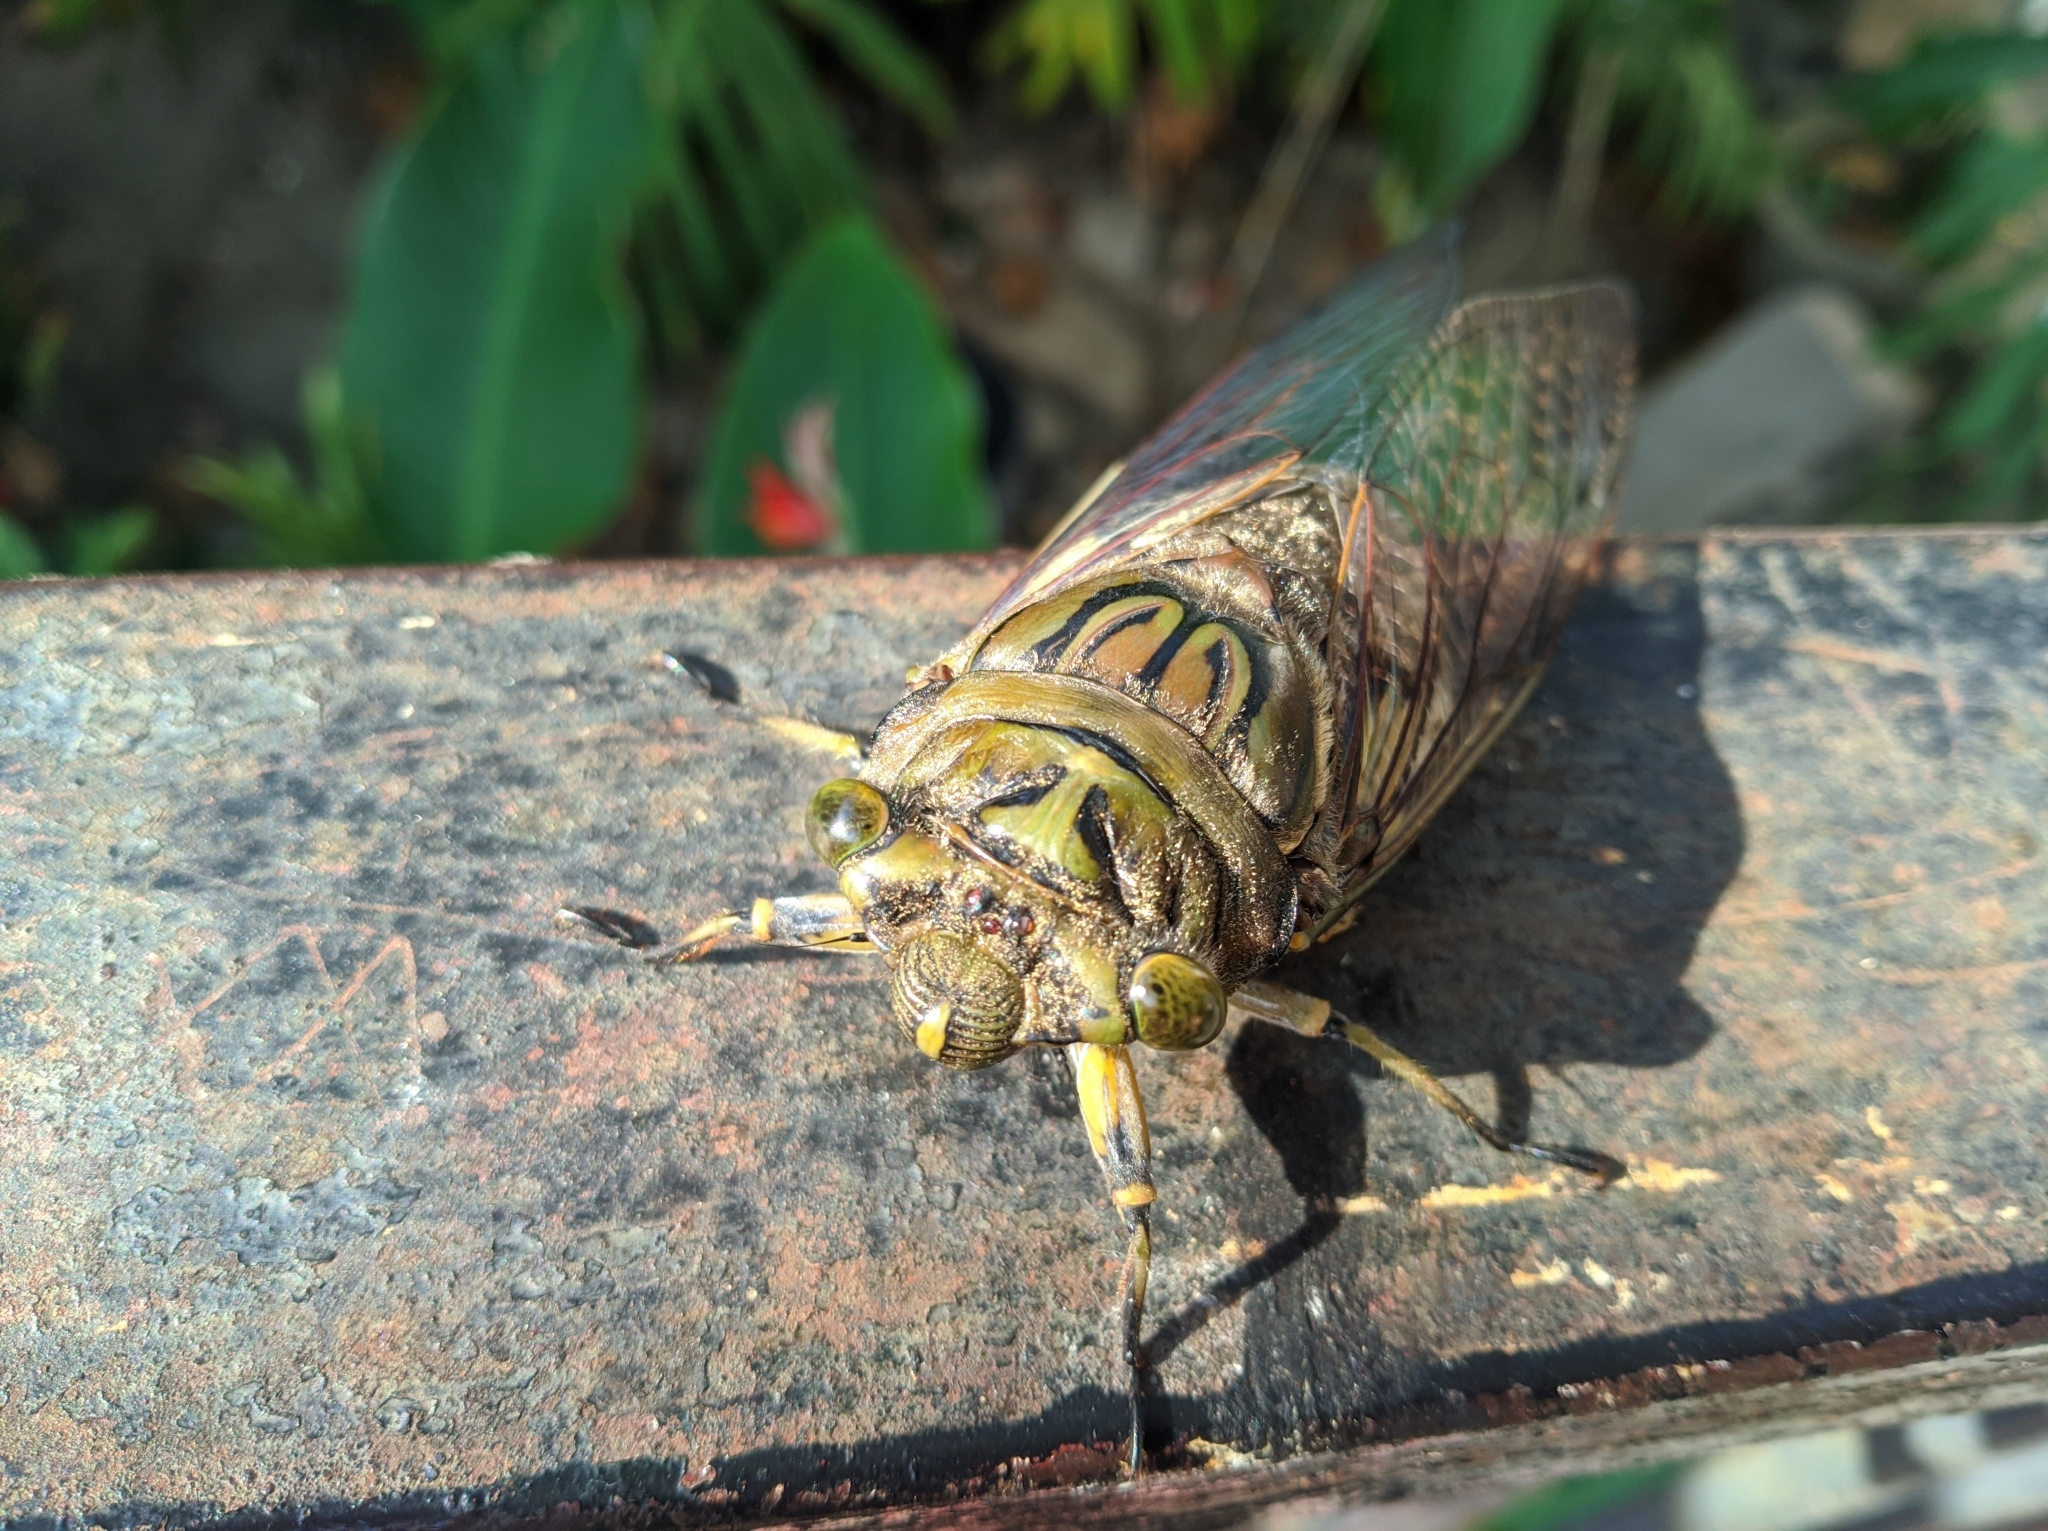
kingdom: Animalia
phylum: Arthropoda
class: Insecta
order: Hemiptera
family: Cicadidae
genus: Quesada
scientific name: Quesada gigas
